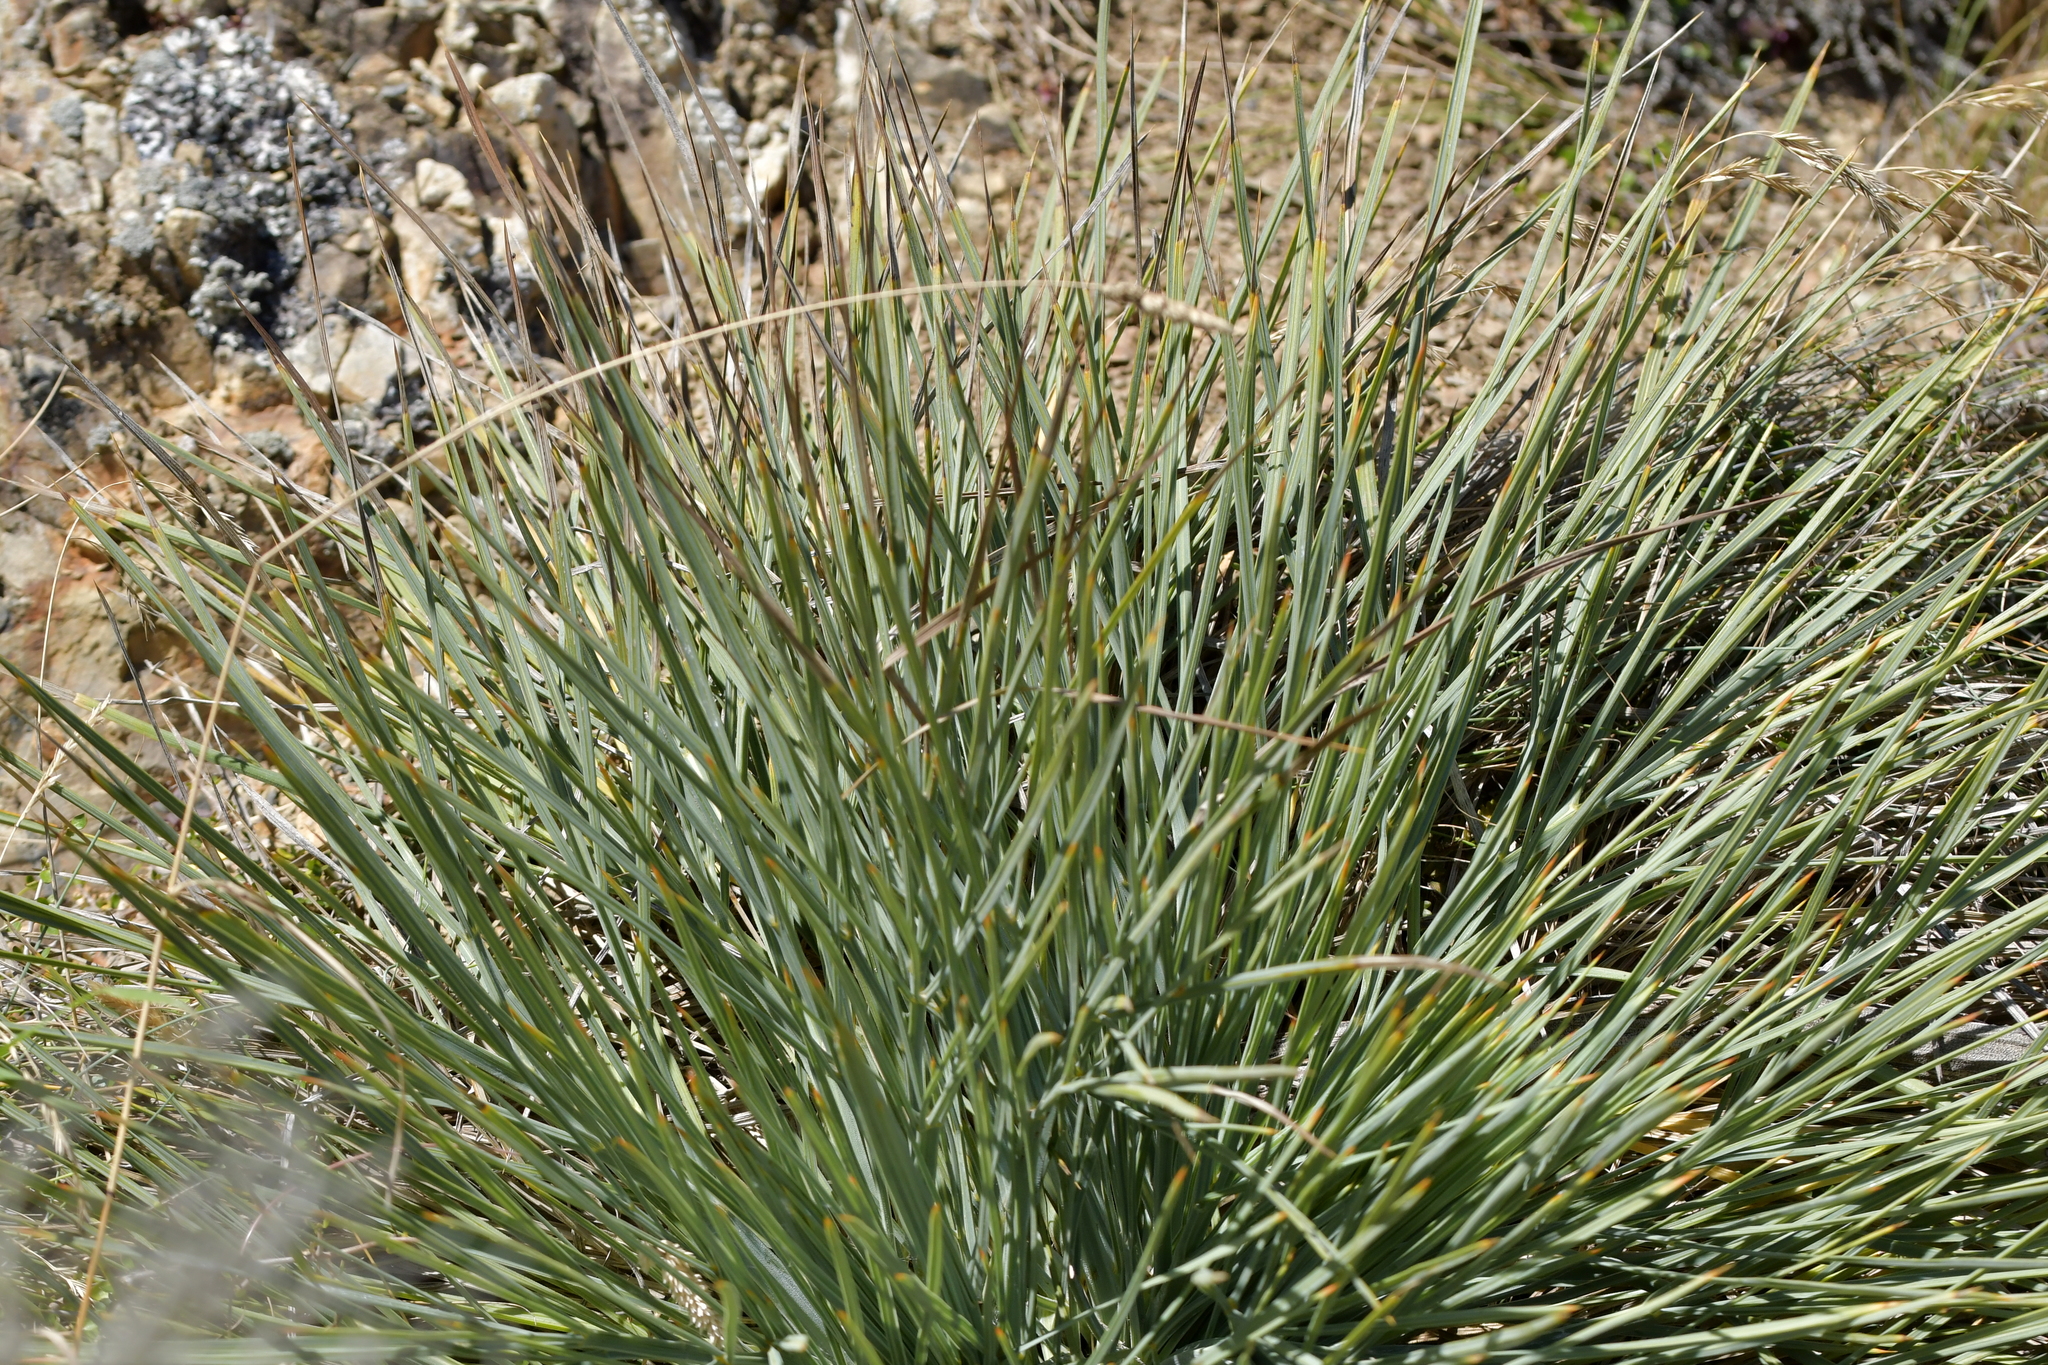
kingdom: Plantae
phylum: Tracheophyta
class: Magnoliopsida
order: Apiales
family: Apiaceae
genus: Aciphylla
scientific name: Aciphylla squarrosa
